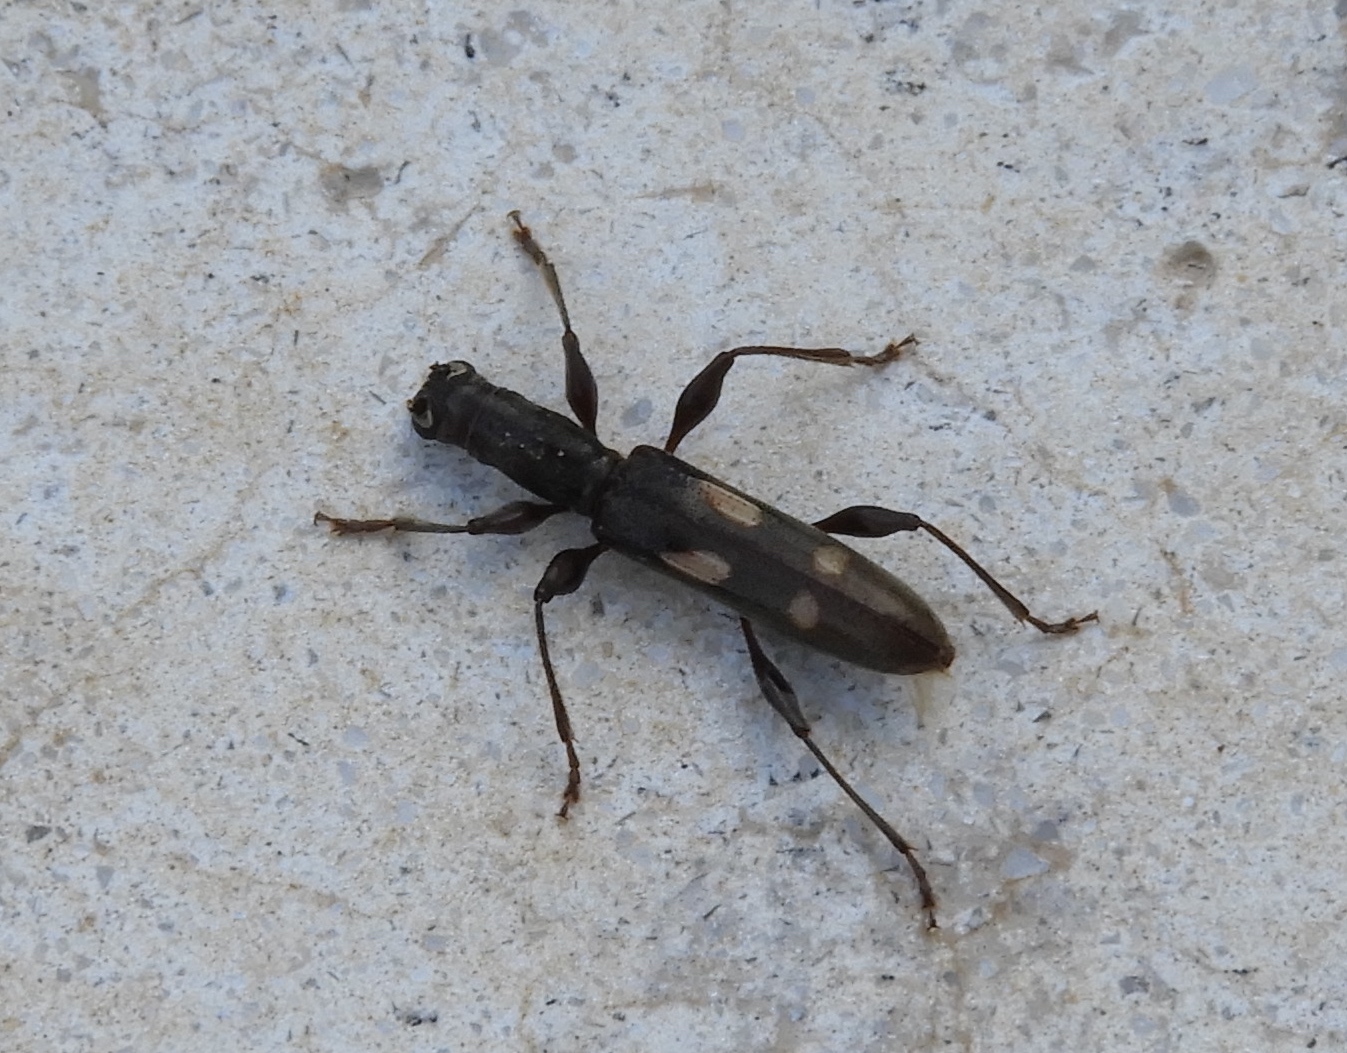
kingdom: Animalia
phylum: Arthropoda
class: Insecta
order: Coleoptera
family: Cerambycidae
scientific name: Cerambycidae
